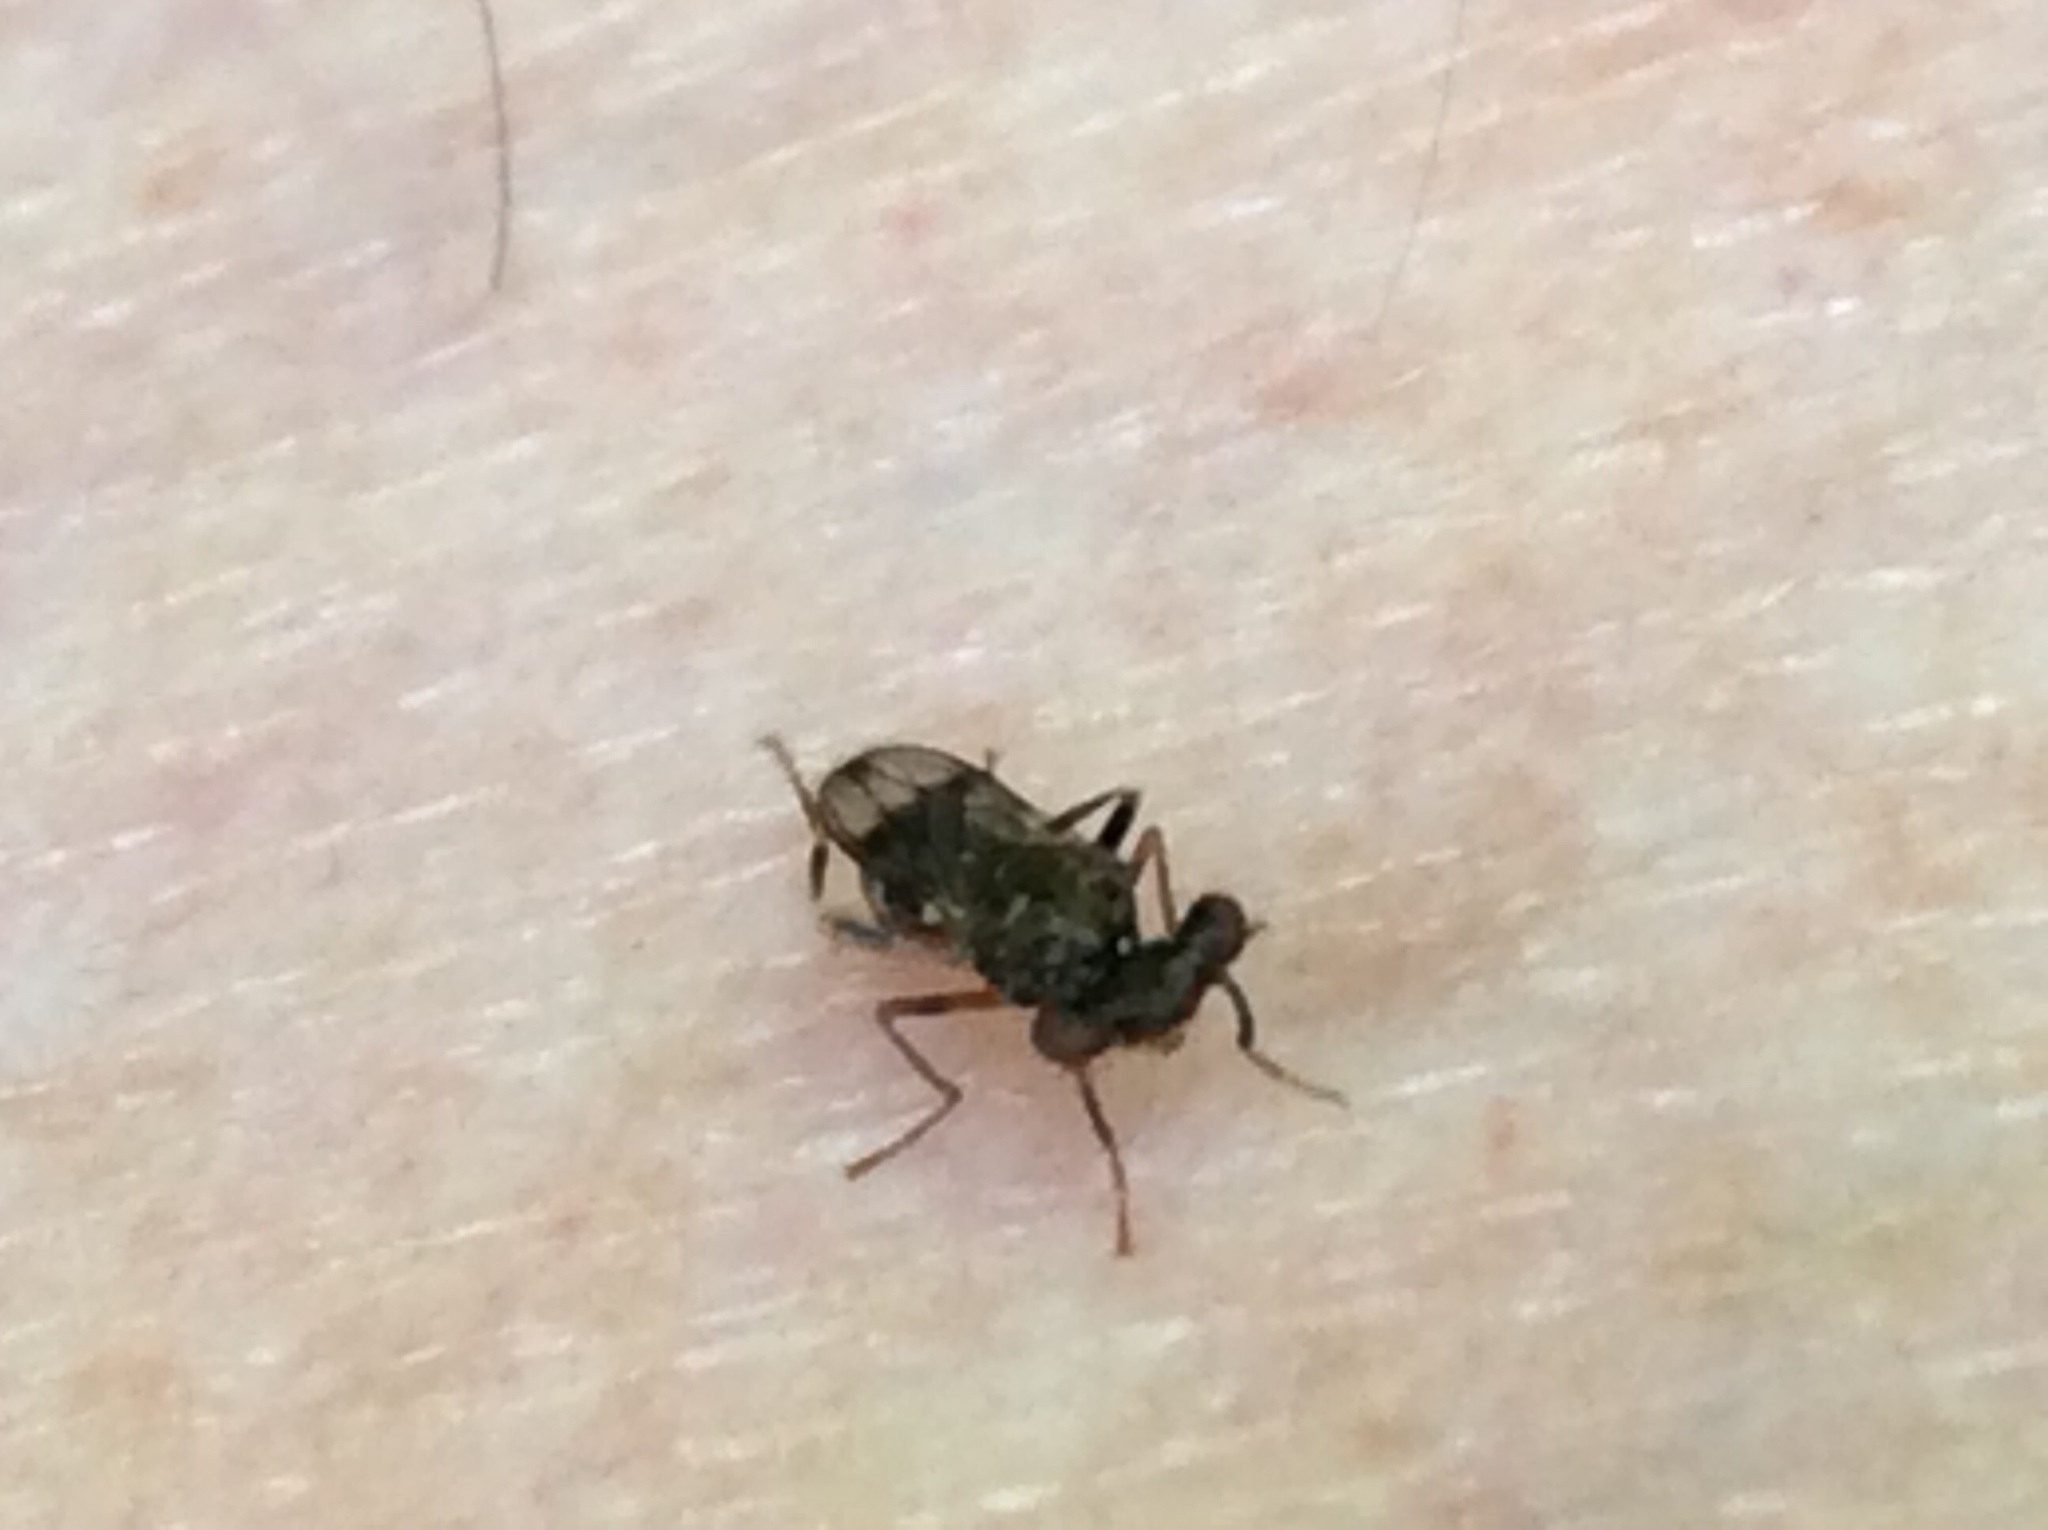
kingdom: Animalia
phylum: Arthropoda
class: Insecta
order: Diptera
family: Diopsidae
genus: Sphyracephala
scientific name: Sphyracephala brevicornis
